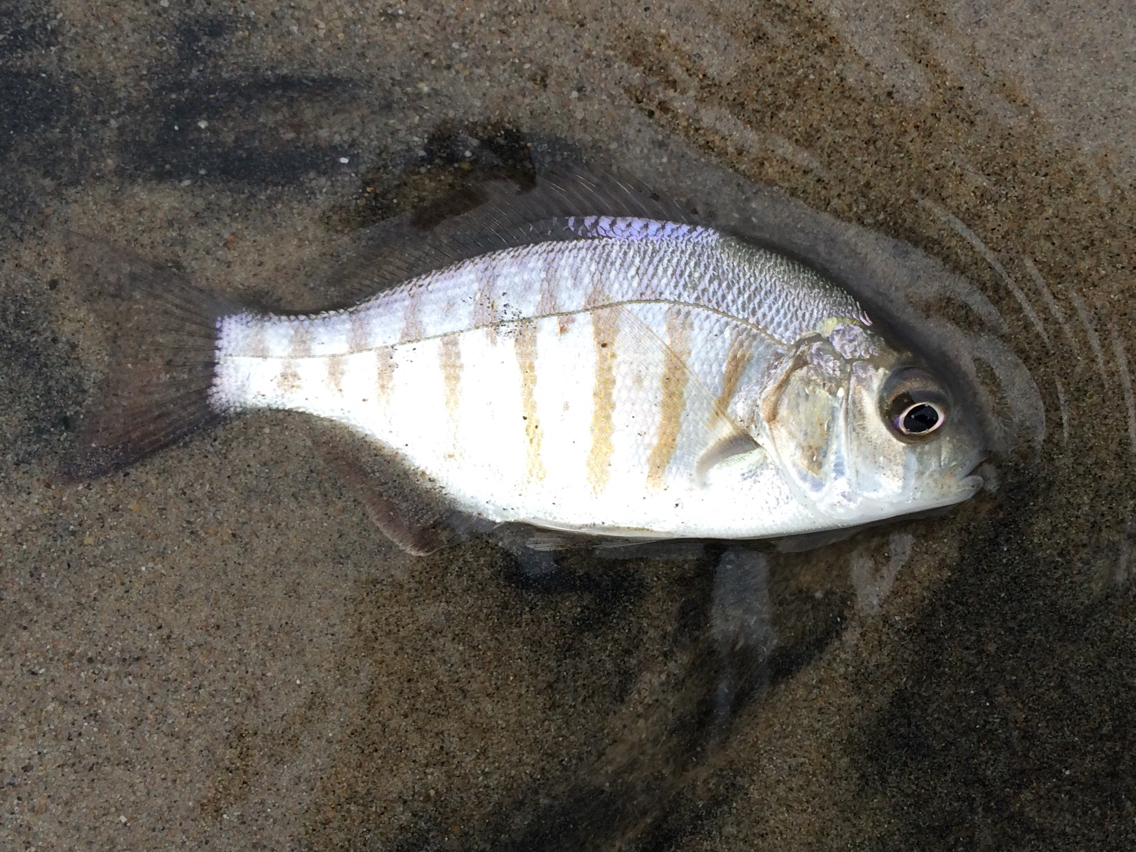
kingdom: Animalia
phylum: Chordata
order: Perciformes
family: Embiotocidae
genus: Amphistichus
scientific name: Amphistichus argenteus
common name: Barred surfperch
